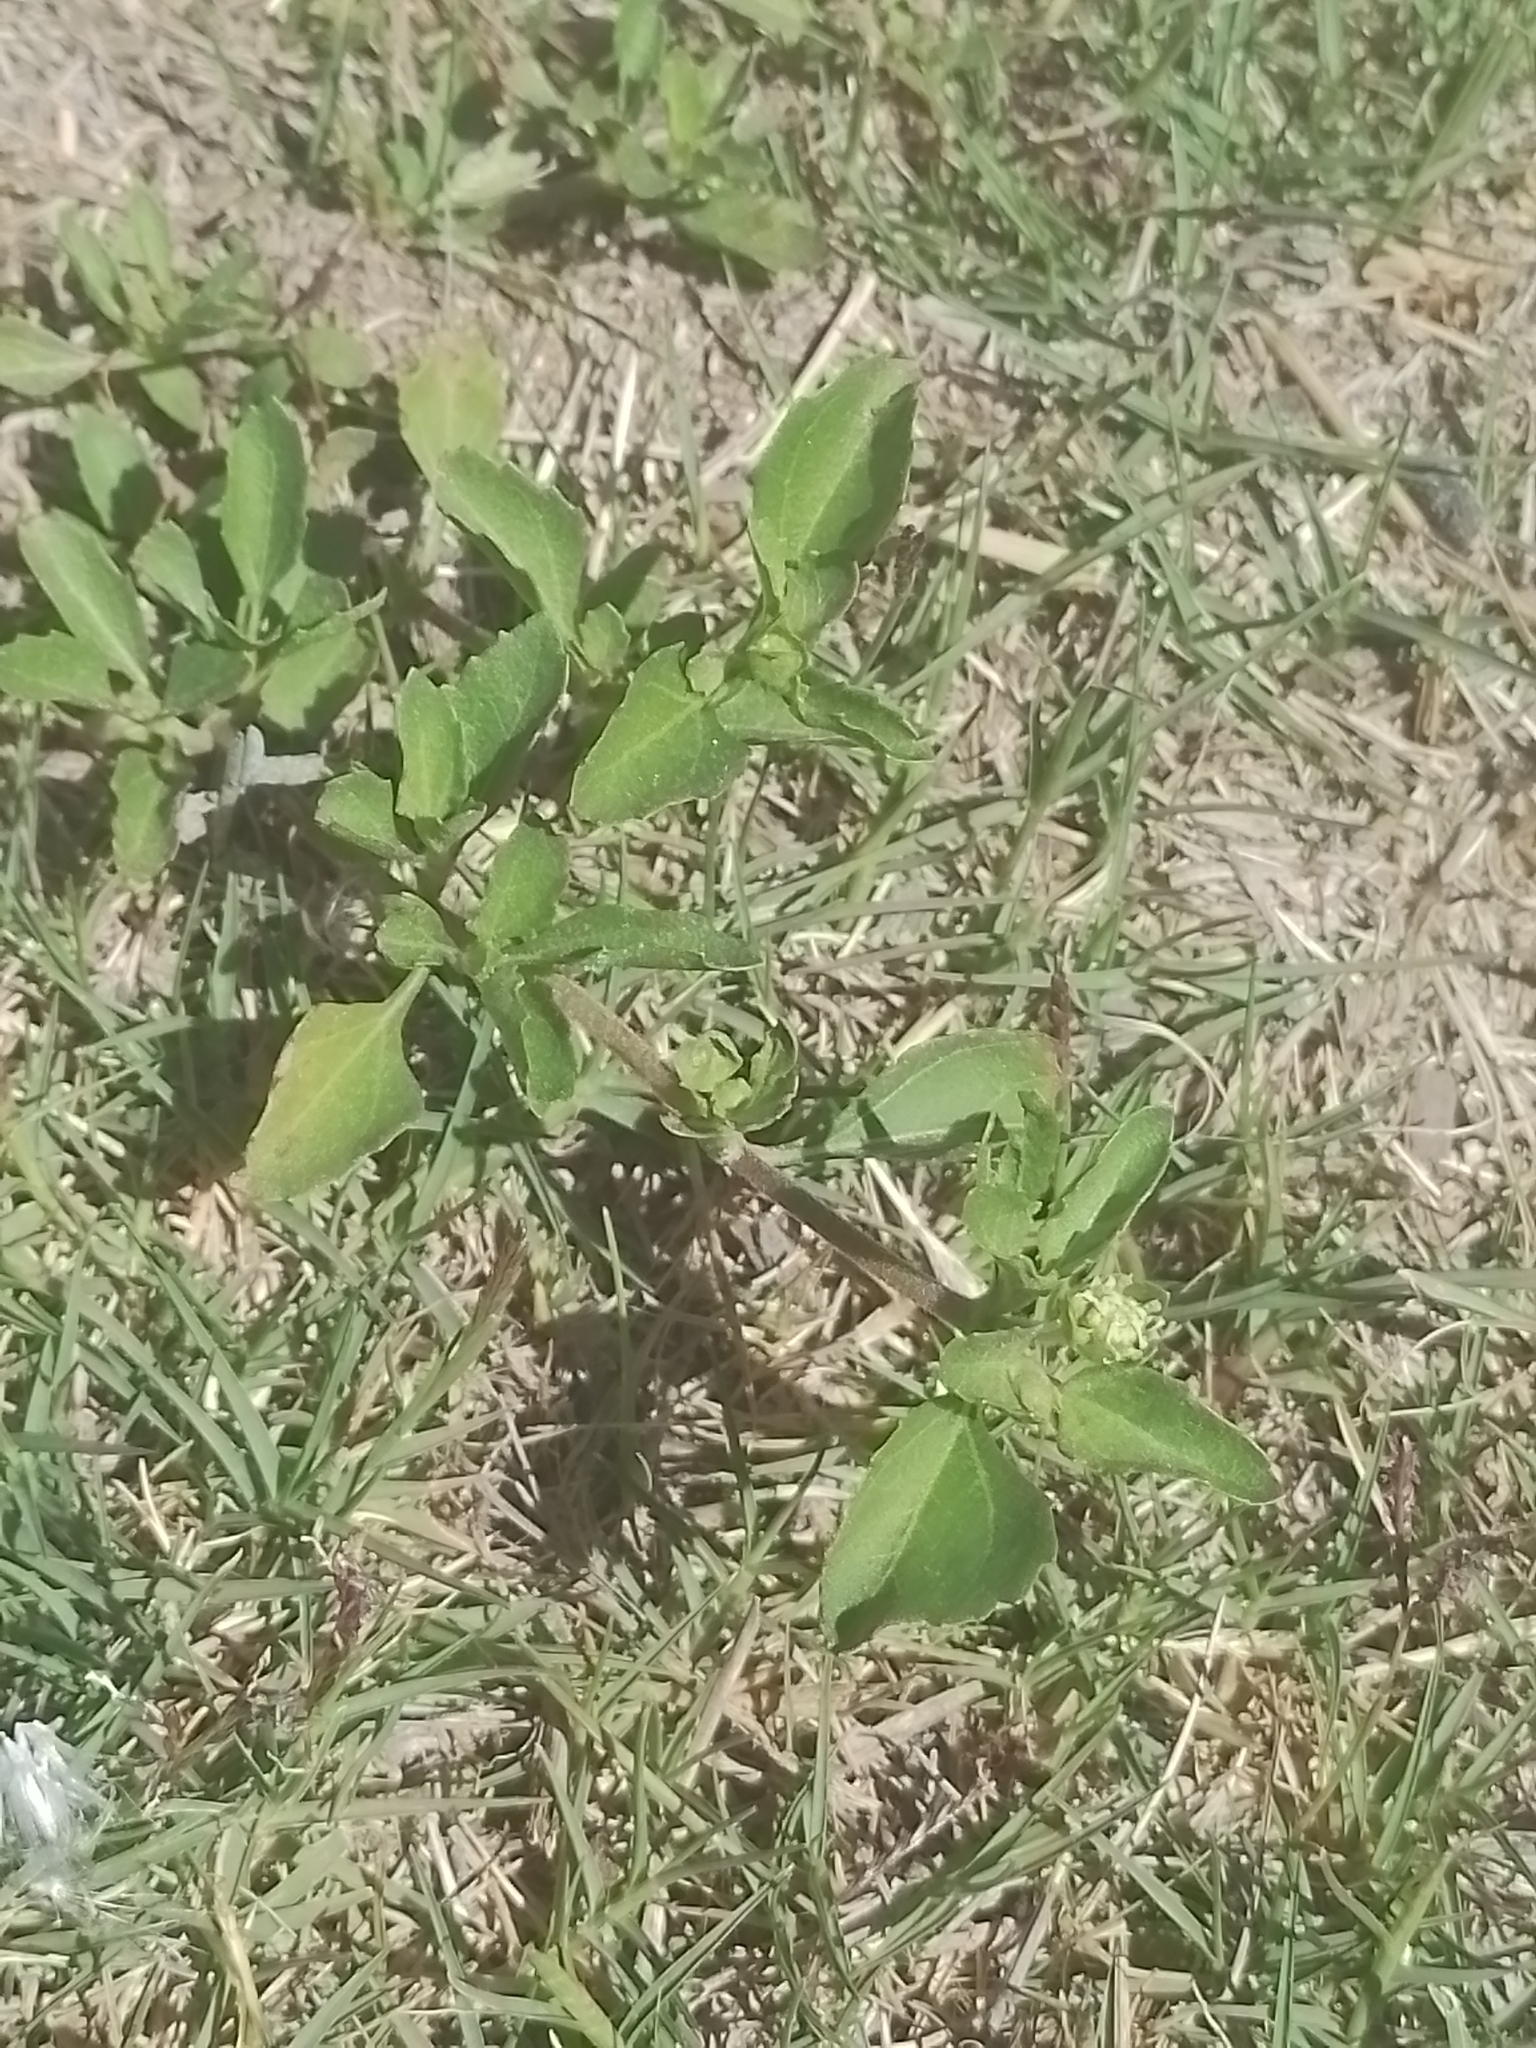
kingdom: Plantae
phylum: Tracheophyta
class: Magnoliopsida
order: Asterales
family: Asteraceae
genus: Acanthospermum
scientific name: Acanthospermum australe
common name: Paraguayan starbur
